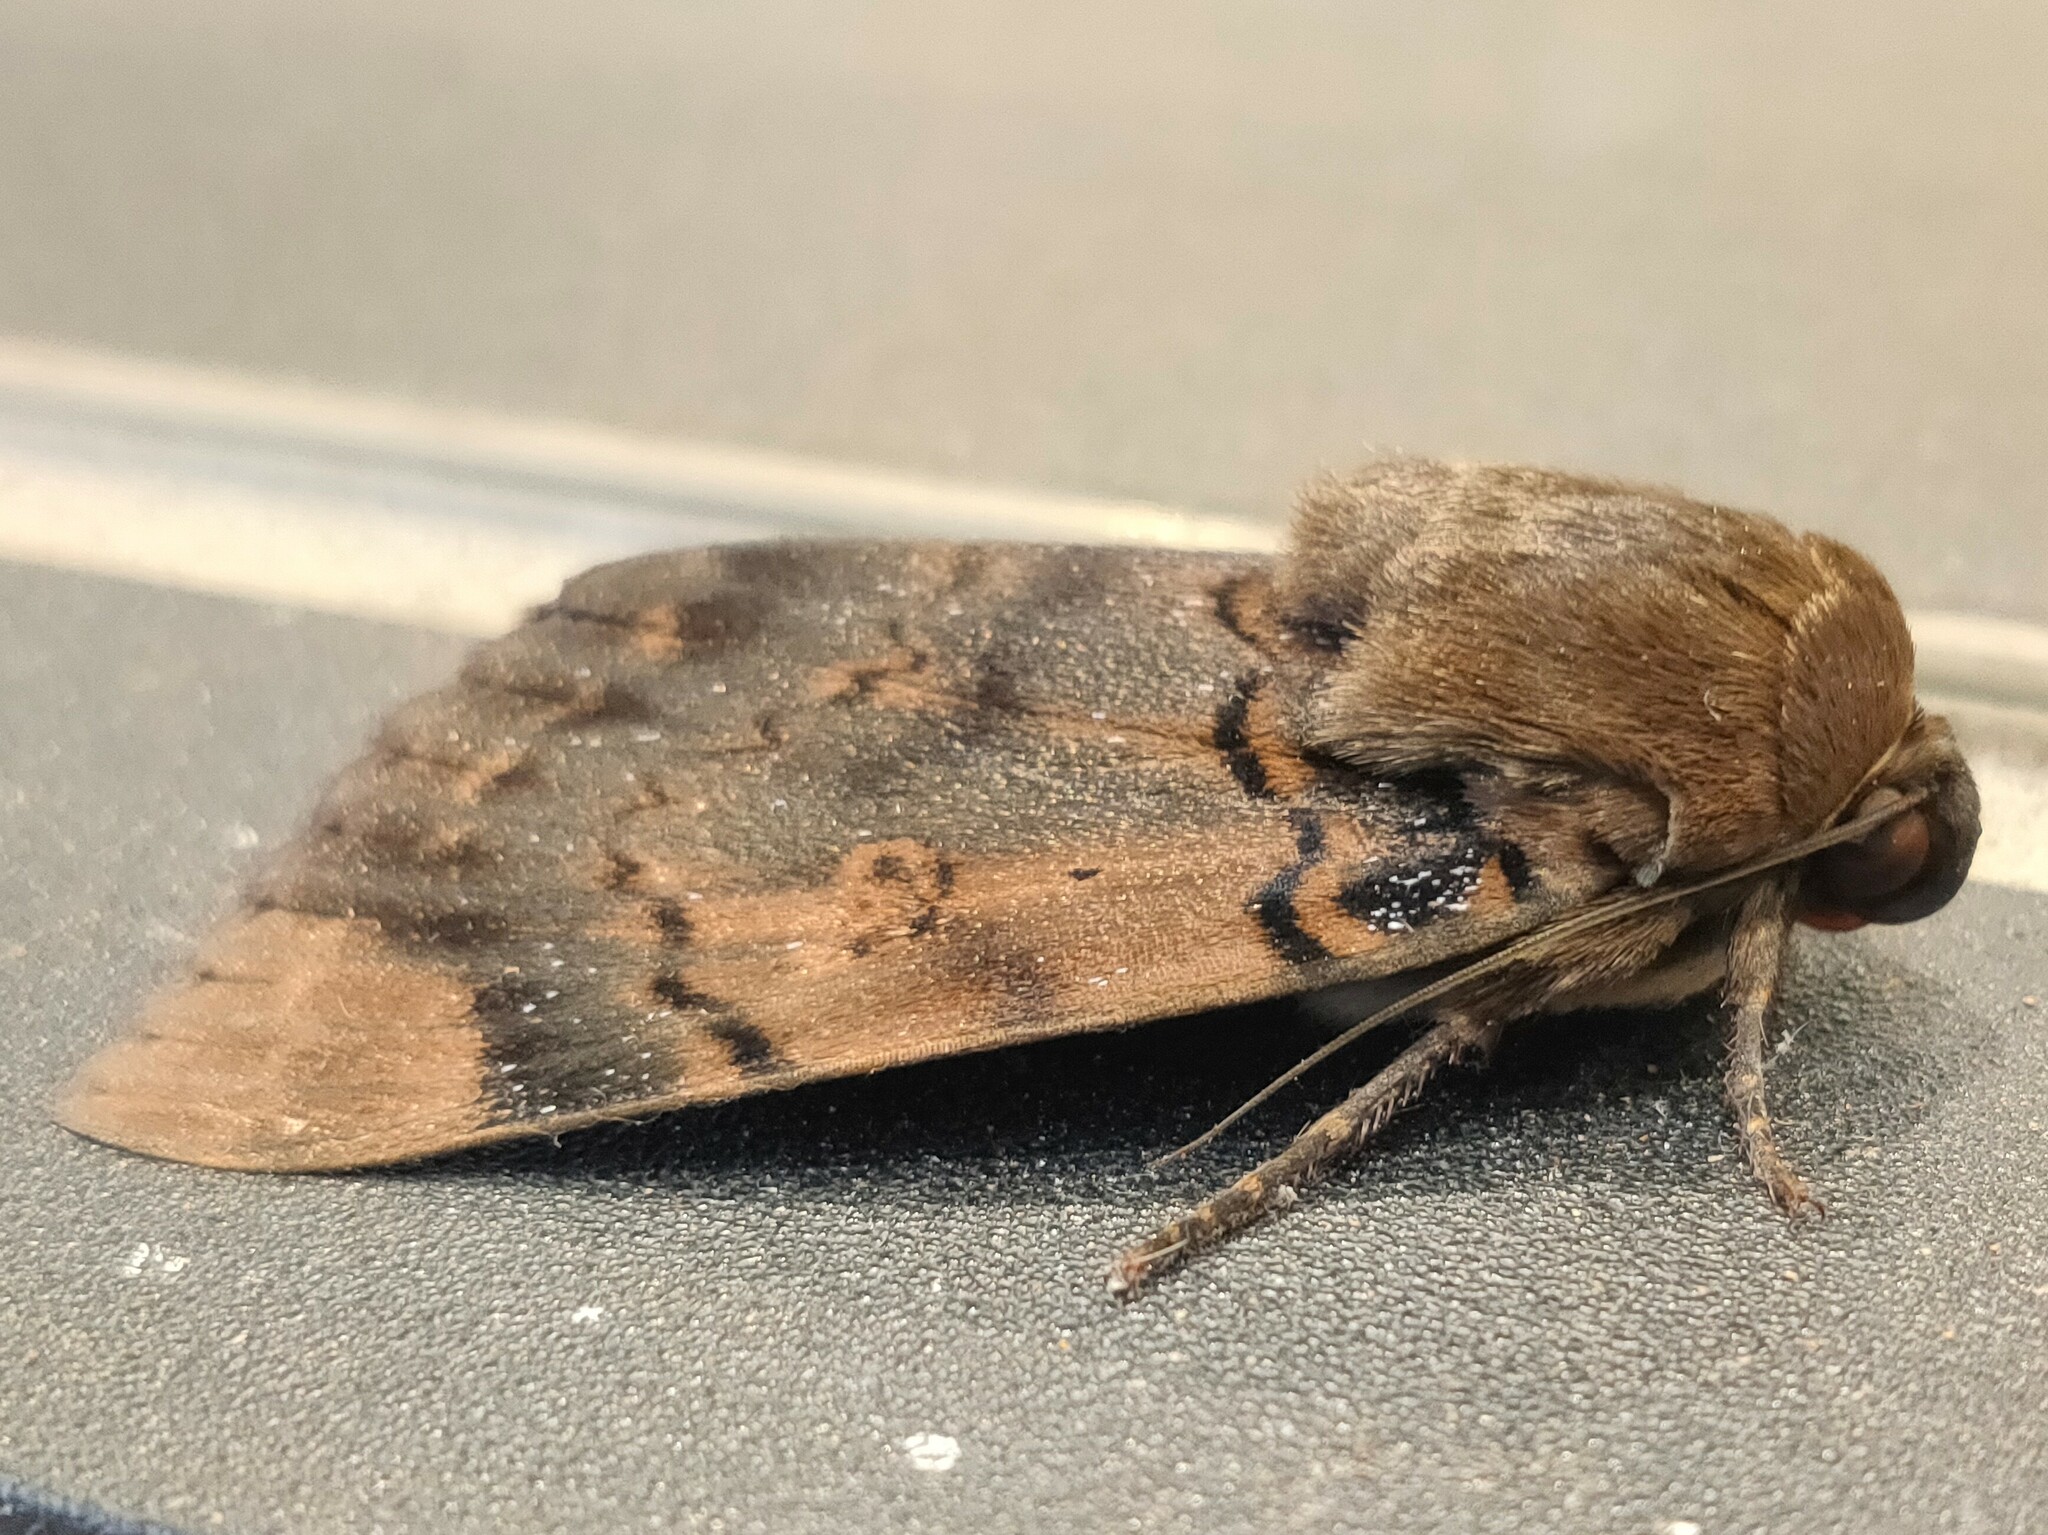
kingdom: Animalia
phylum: Arthropoda
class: Insecta
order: Lepidoptera
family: Erebidae
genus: Arcte
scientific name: Arcte coerula
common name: Ramie moth
